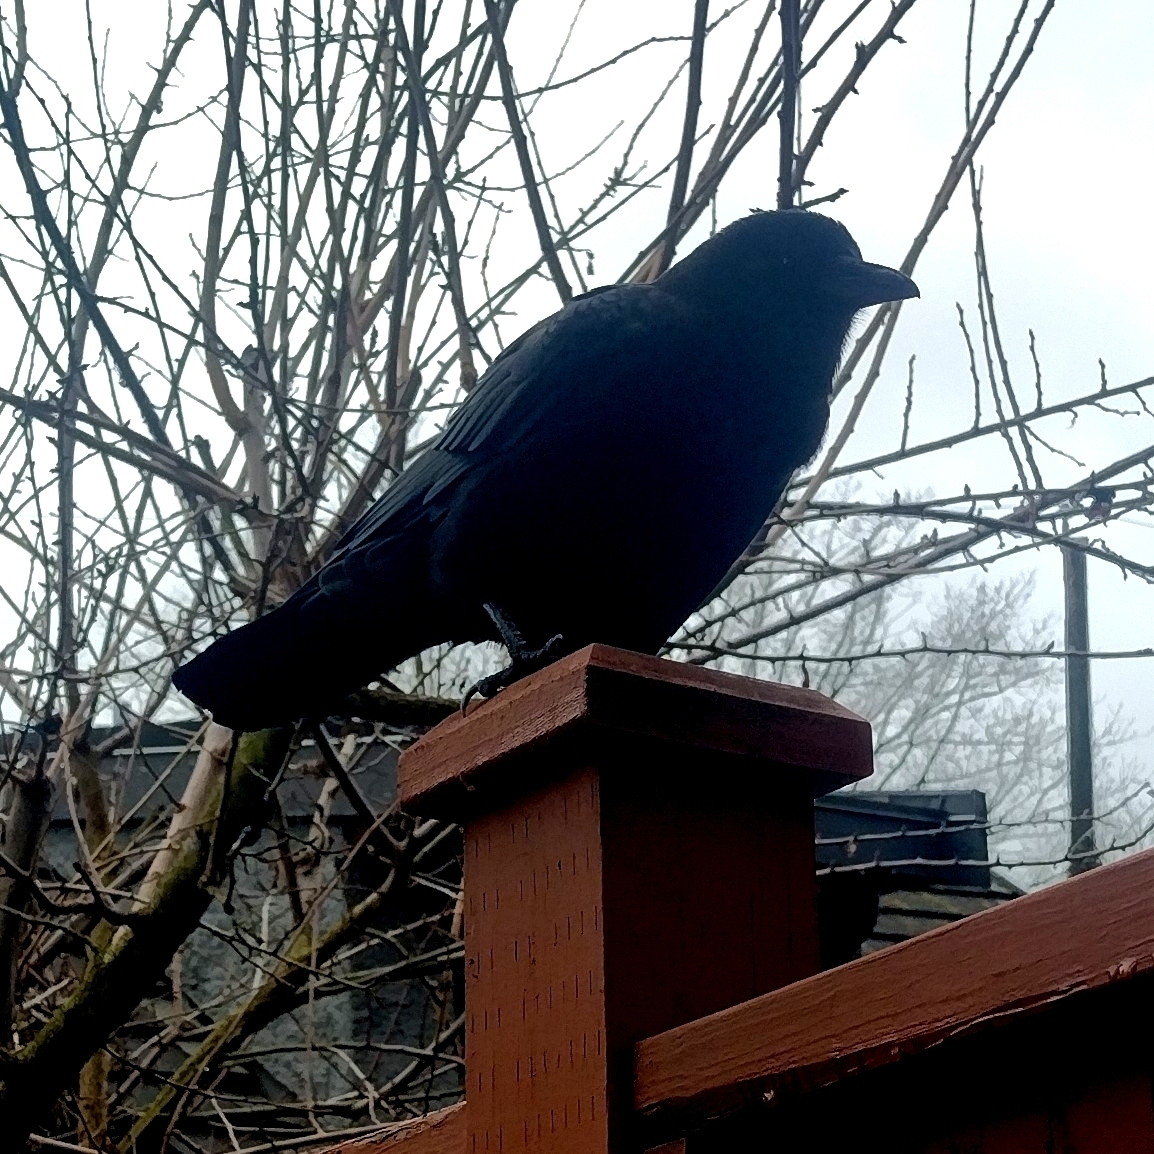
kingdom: Animalia
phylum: Chordata
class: Aves
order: Passeriformes
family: Corvidae
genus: Corvus
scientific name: Corvus brachyrhynchos
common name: American crow
